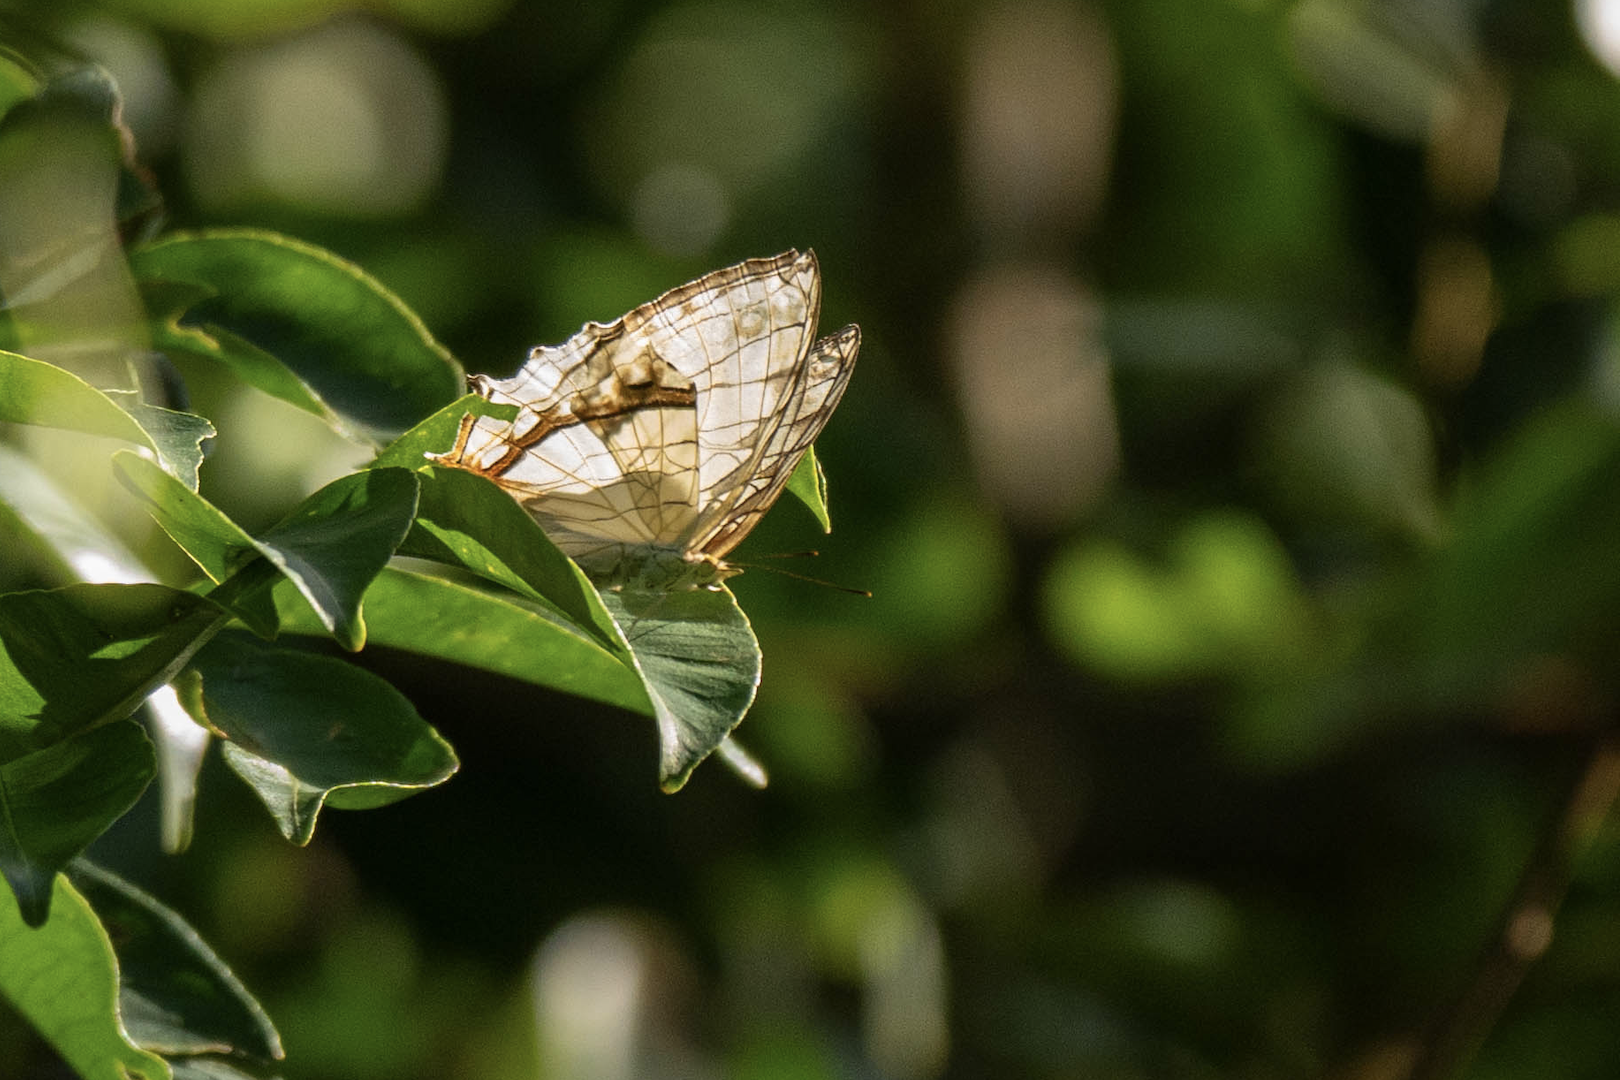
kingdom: Animalia
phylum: Arthropoda
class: Insecta
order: Lepidoptera
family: Nymphalidae
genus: Cyrestis
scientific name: Cyrestis thyodamas
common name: Common mapwing
